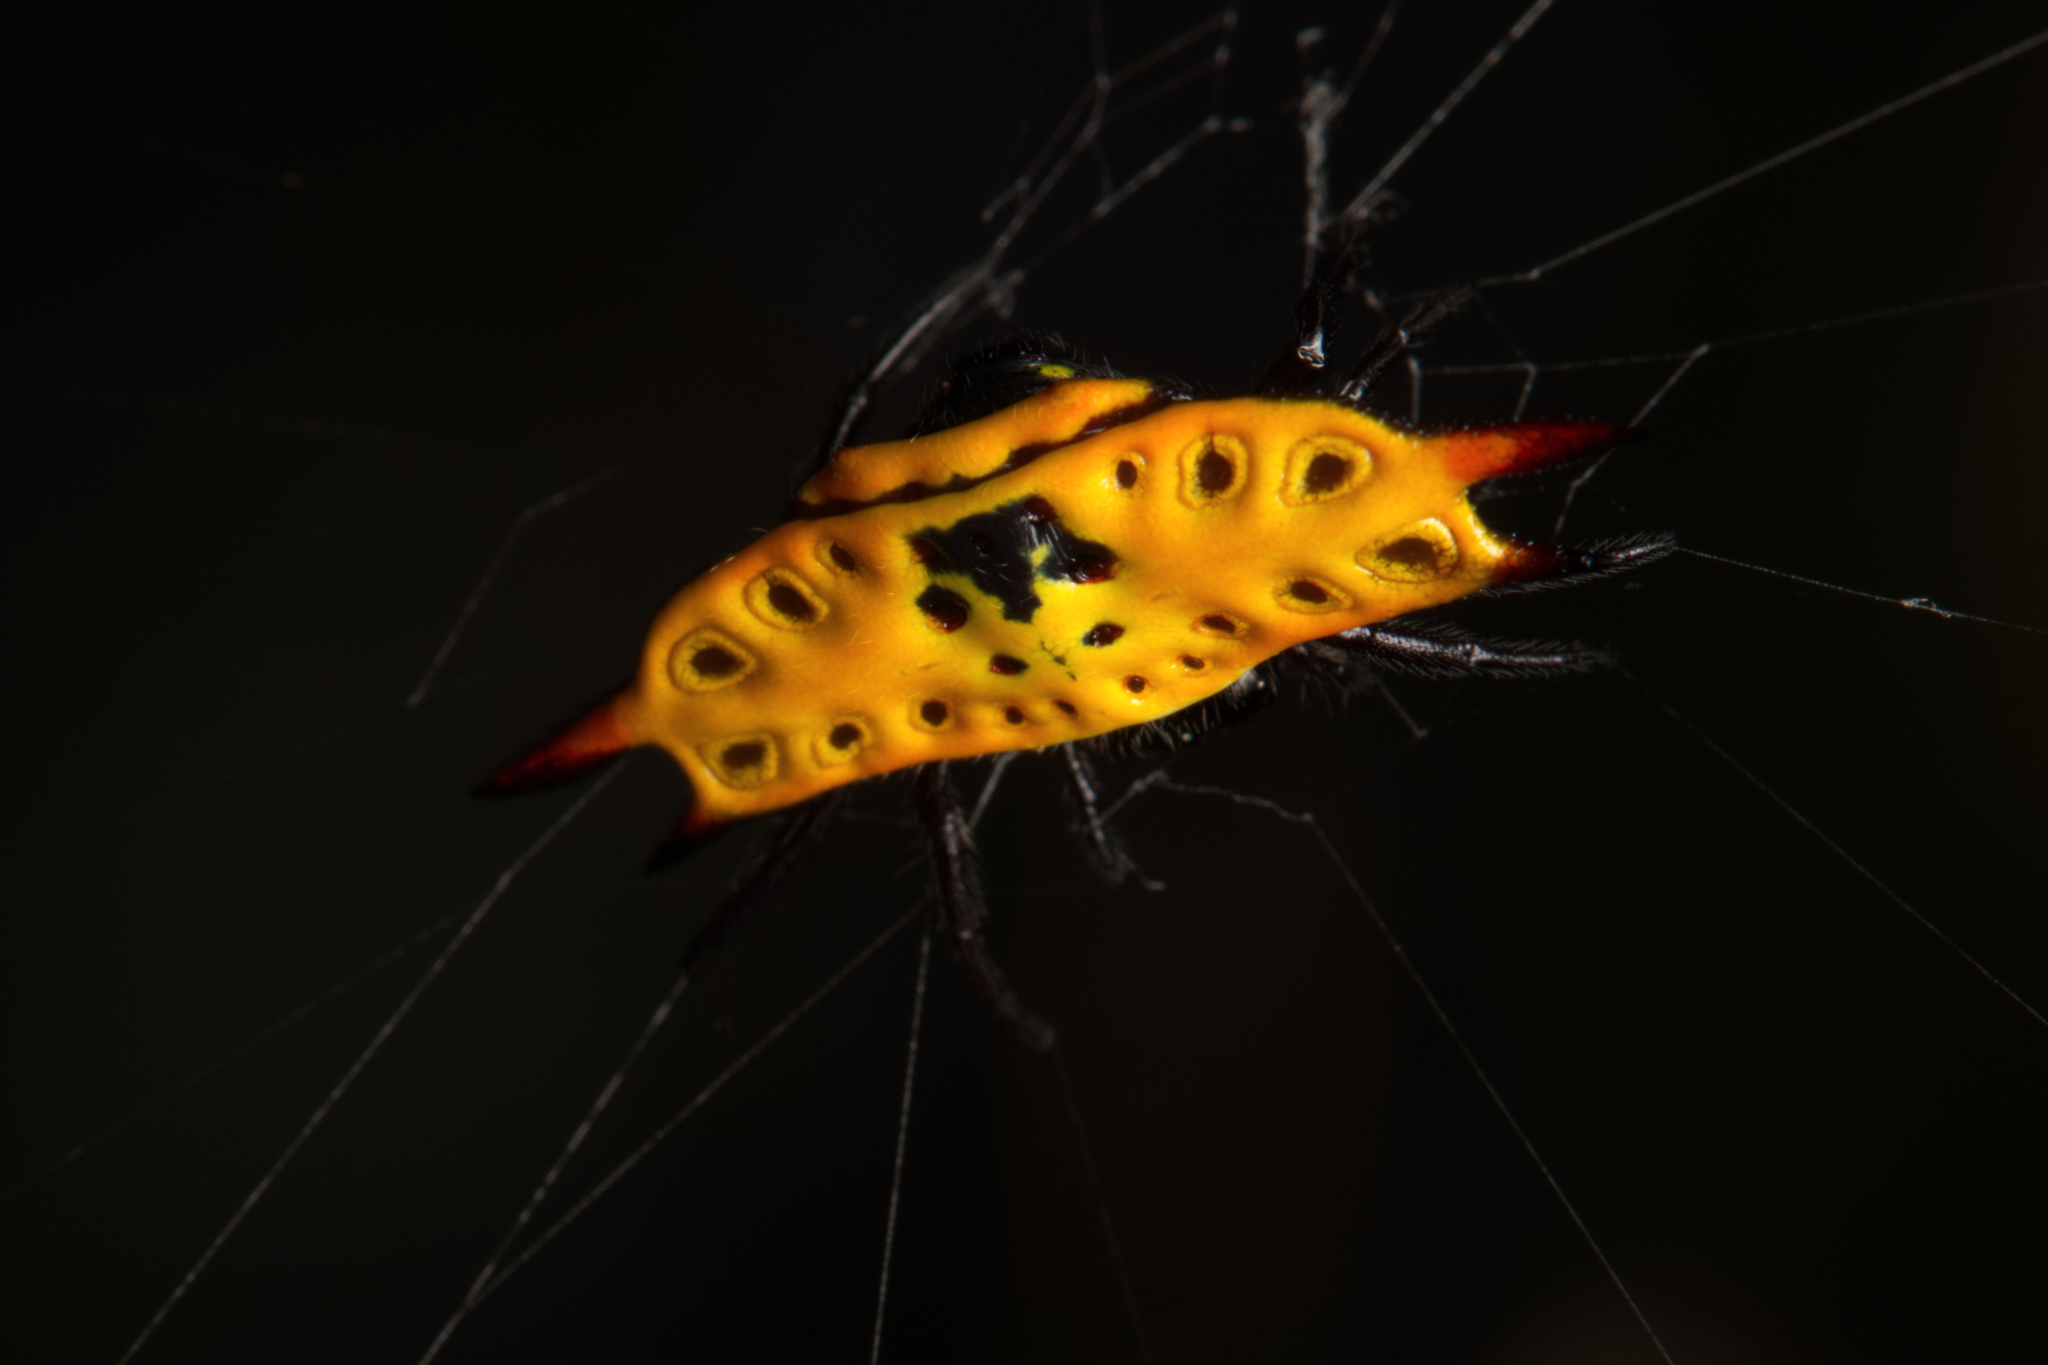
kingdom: Animalia
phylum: Arthropoda
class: Arachnida
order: Araneae
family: Araneidae
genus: Gasteracantha
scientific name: Gasteracantha quadrispinosa
